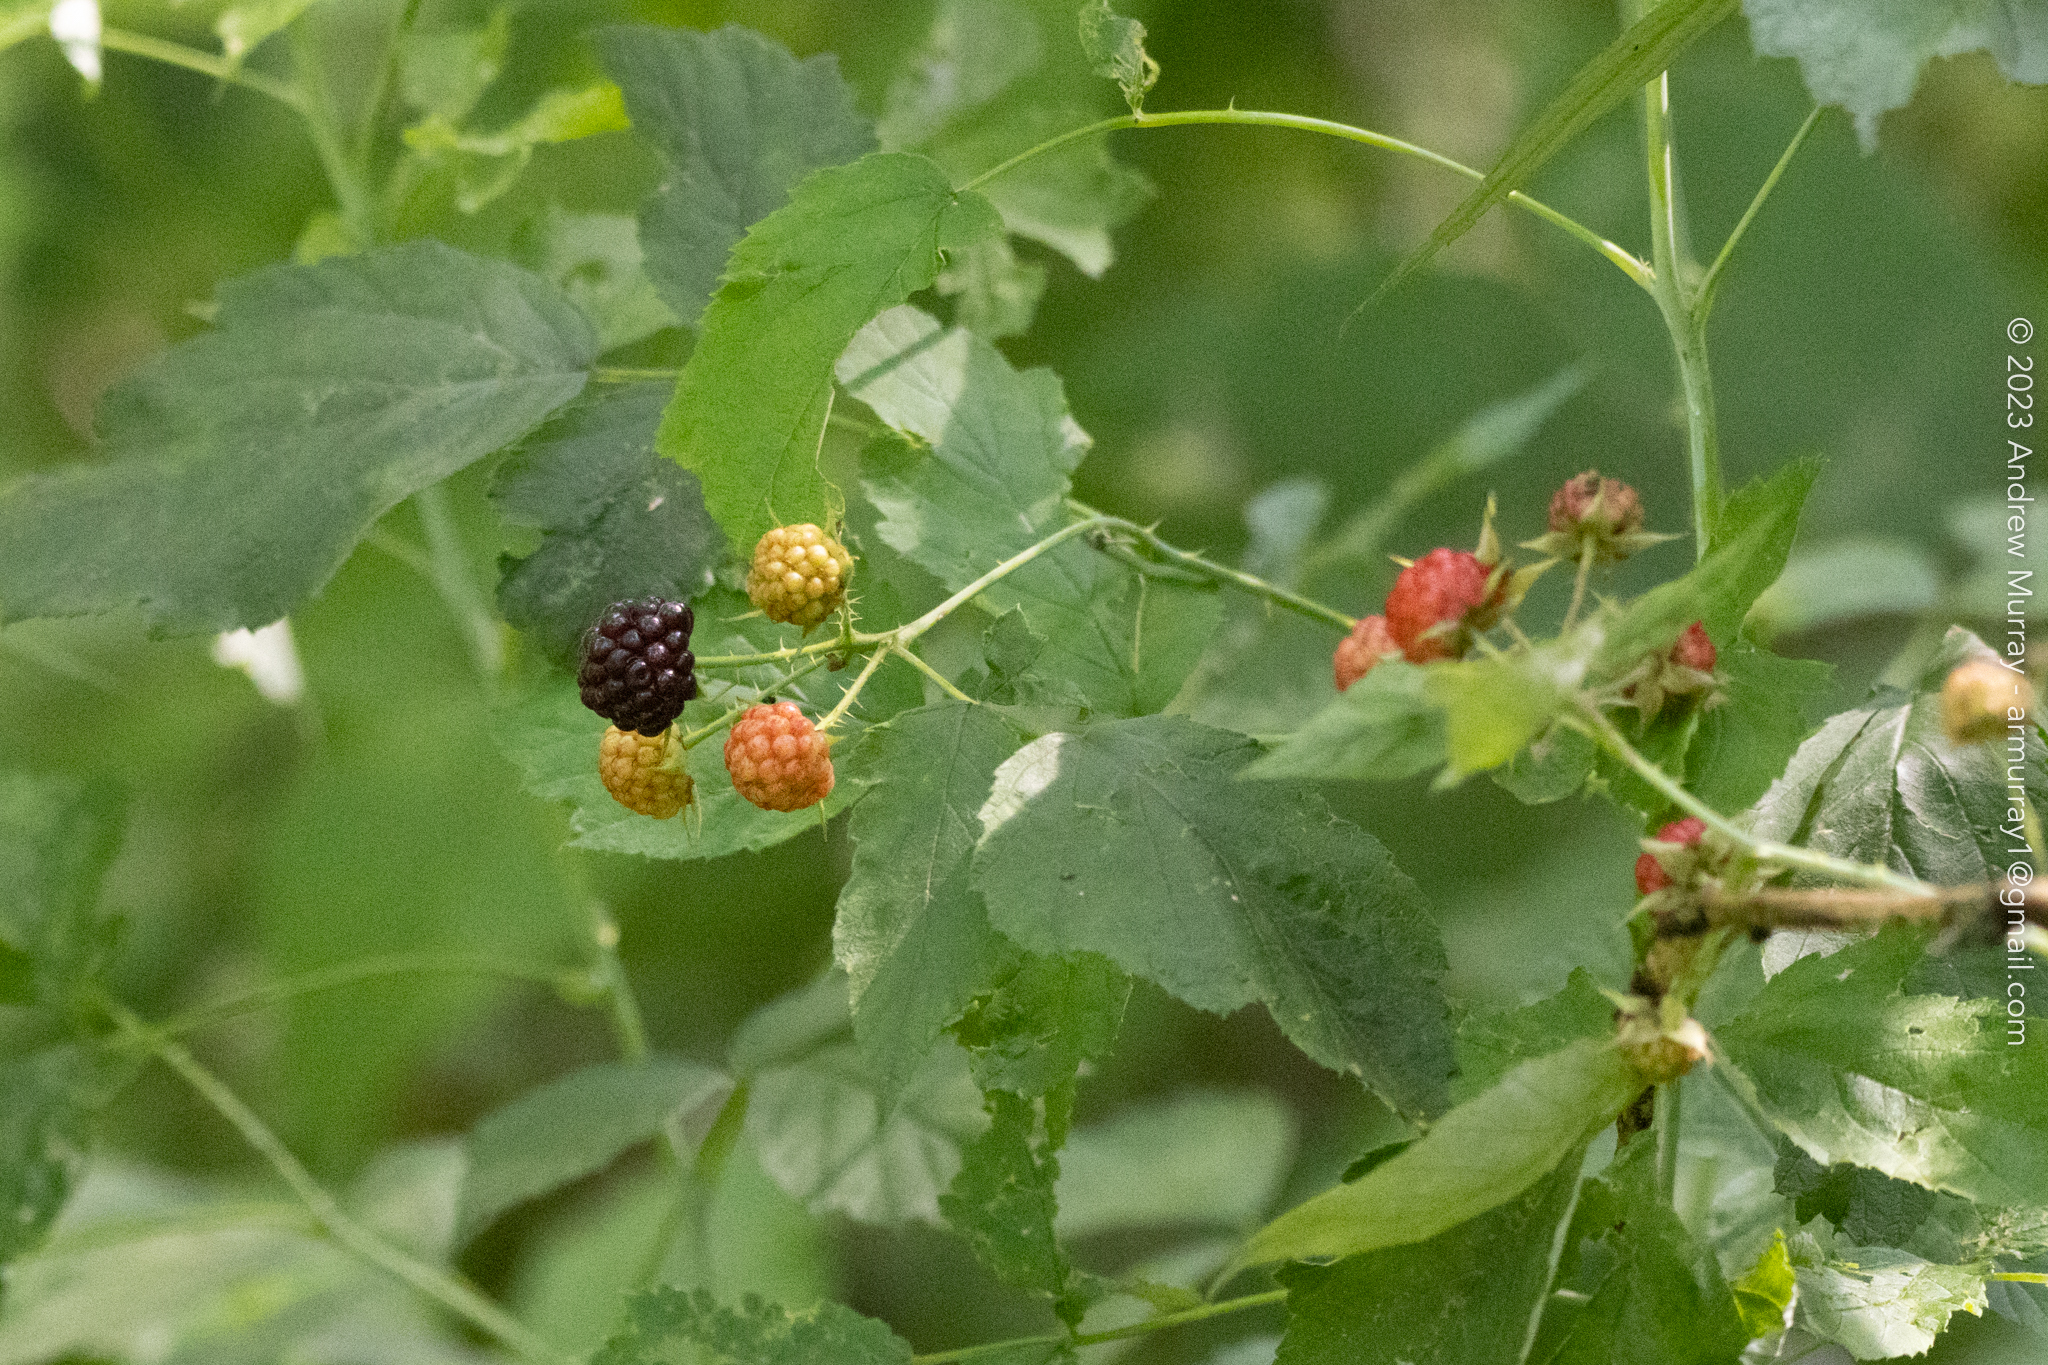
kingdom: Plantae
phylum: Tracheophyta
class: Magnoliopsida
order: Rosales
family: Rosaceae
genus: Rubus
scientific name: Rubus occidentalis
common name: Black raspberry
